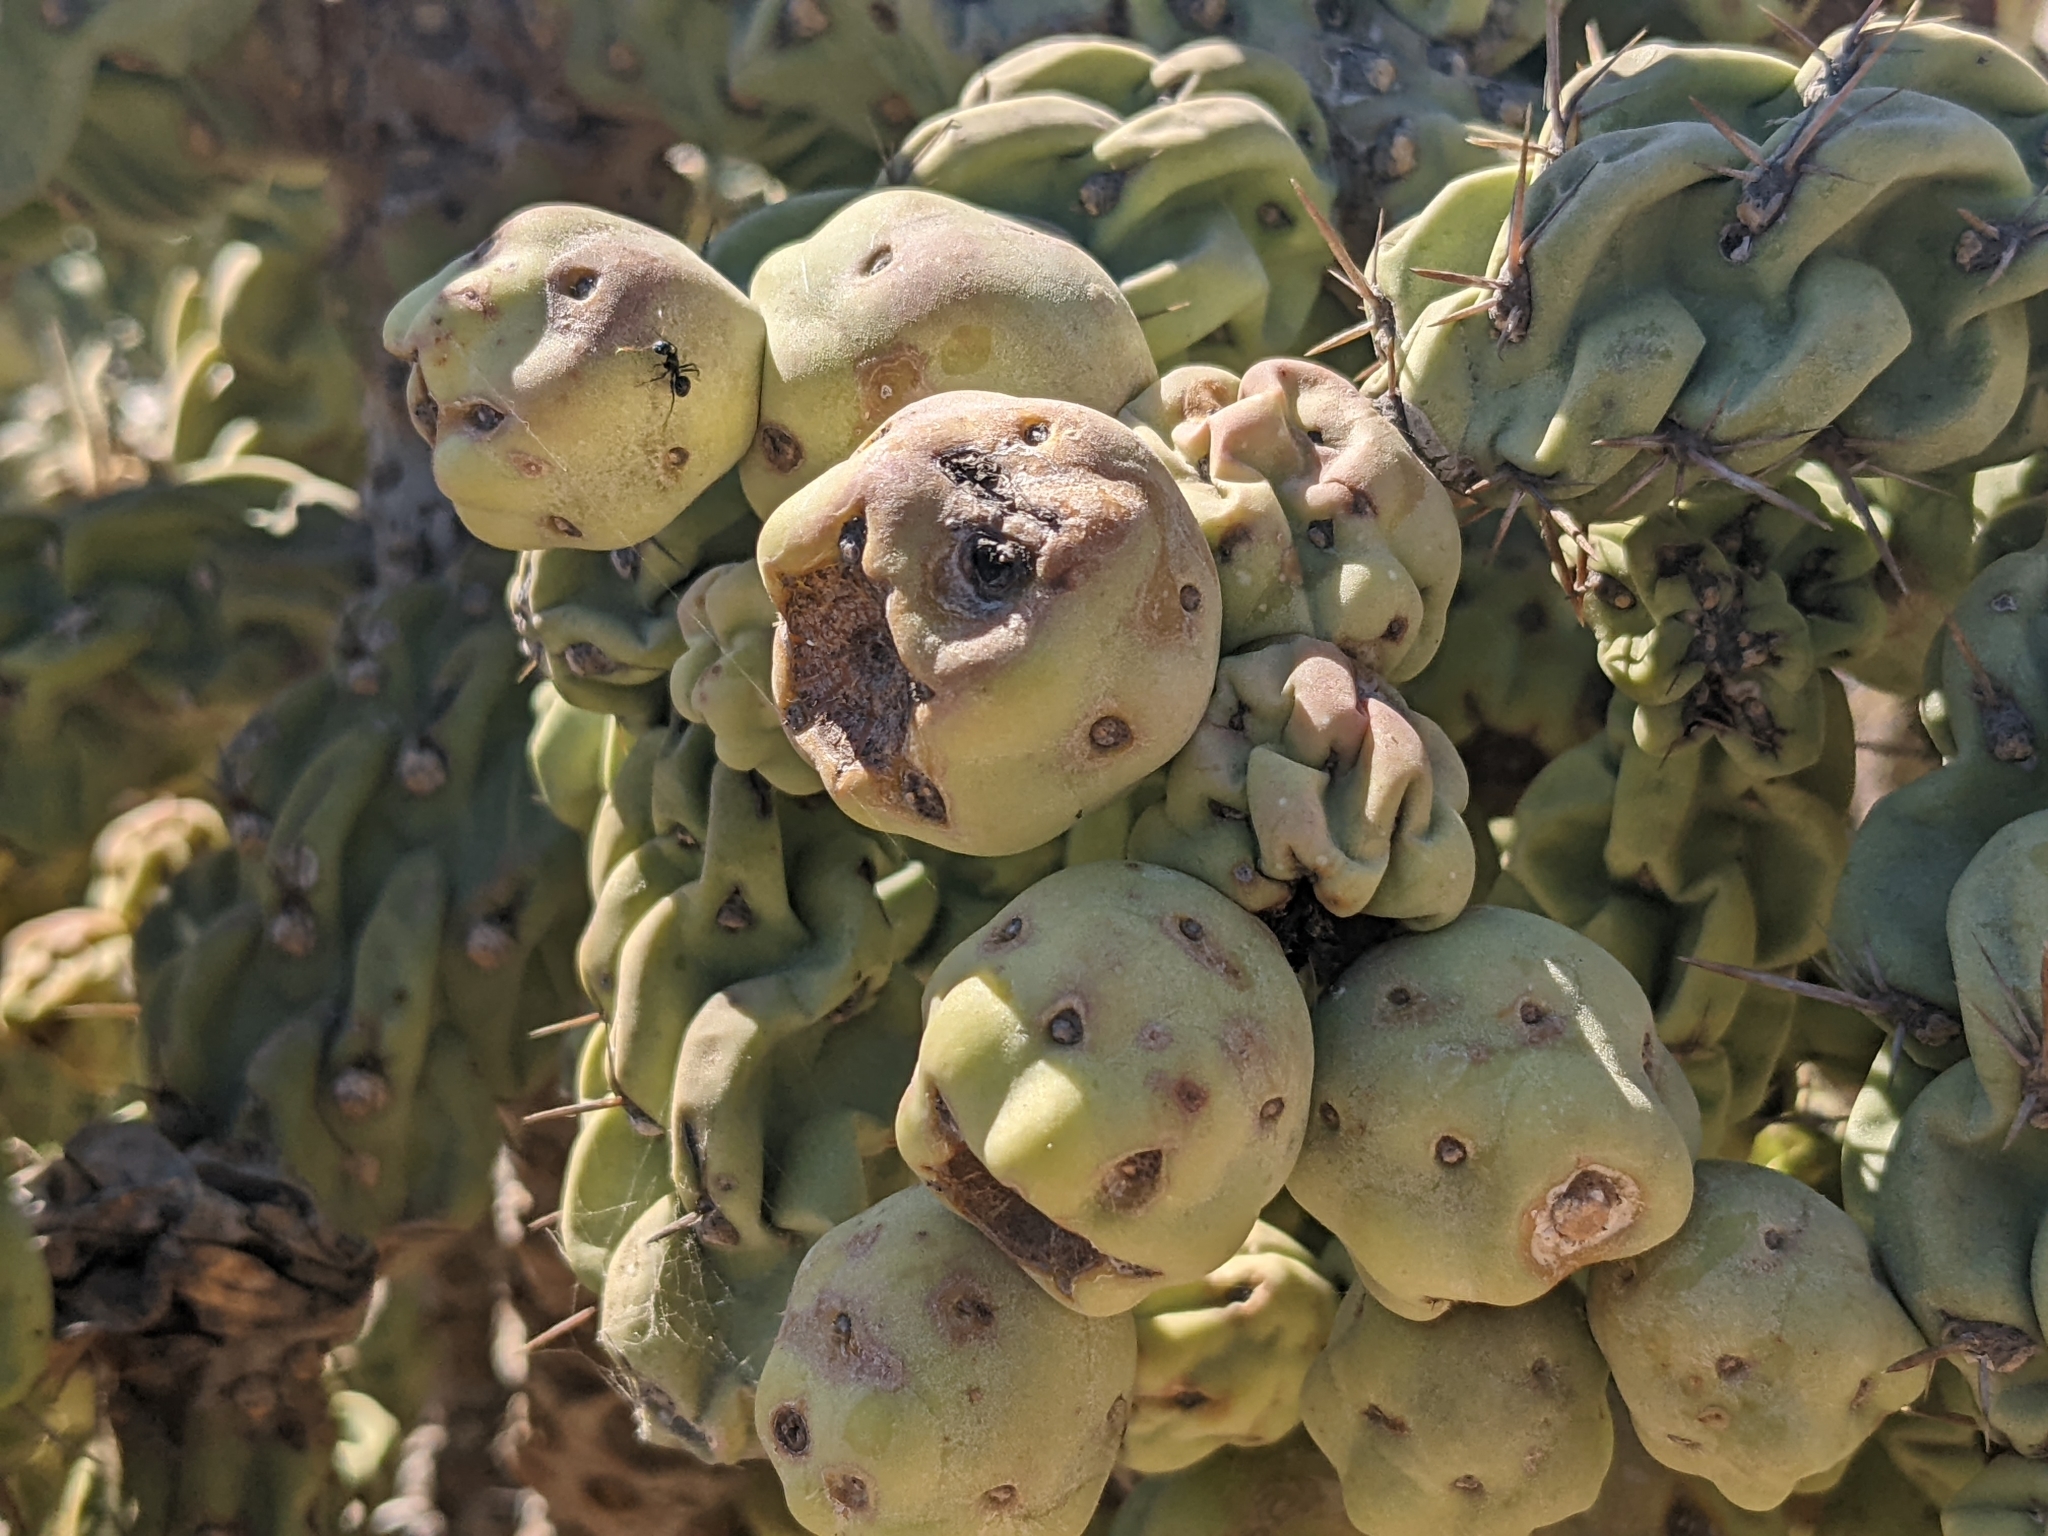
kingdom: Plantae
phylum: Tracheophyta
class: Magnoliopsida
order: Caryophyllales
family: Cactaceae
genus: Cylindropuntia
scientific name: Cylindropuntia cholla
